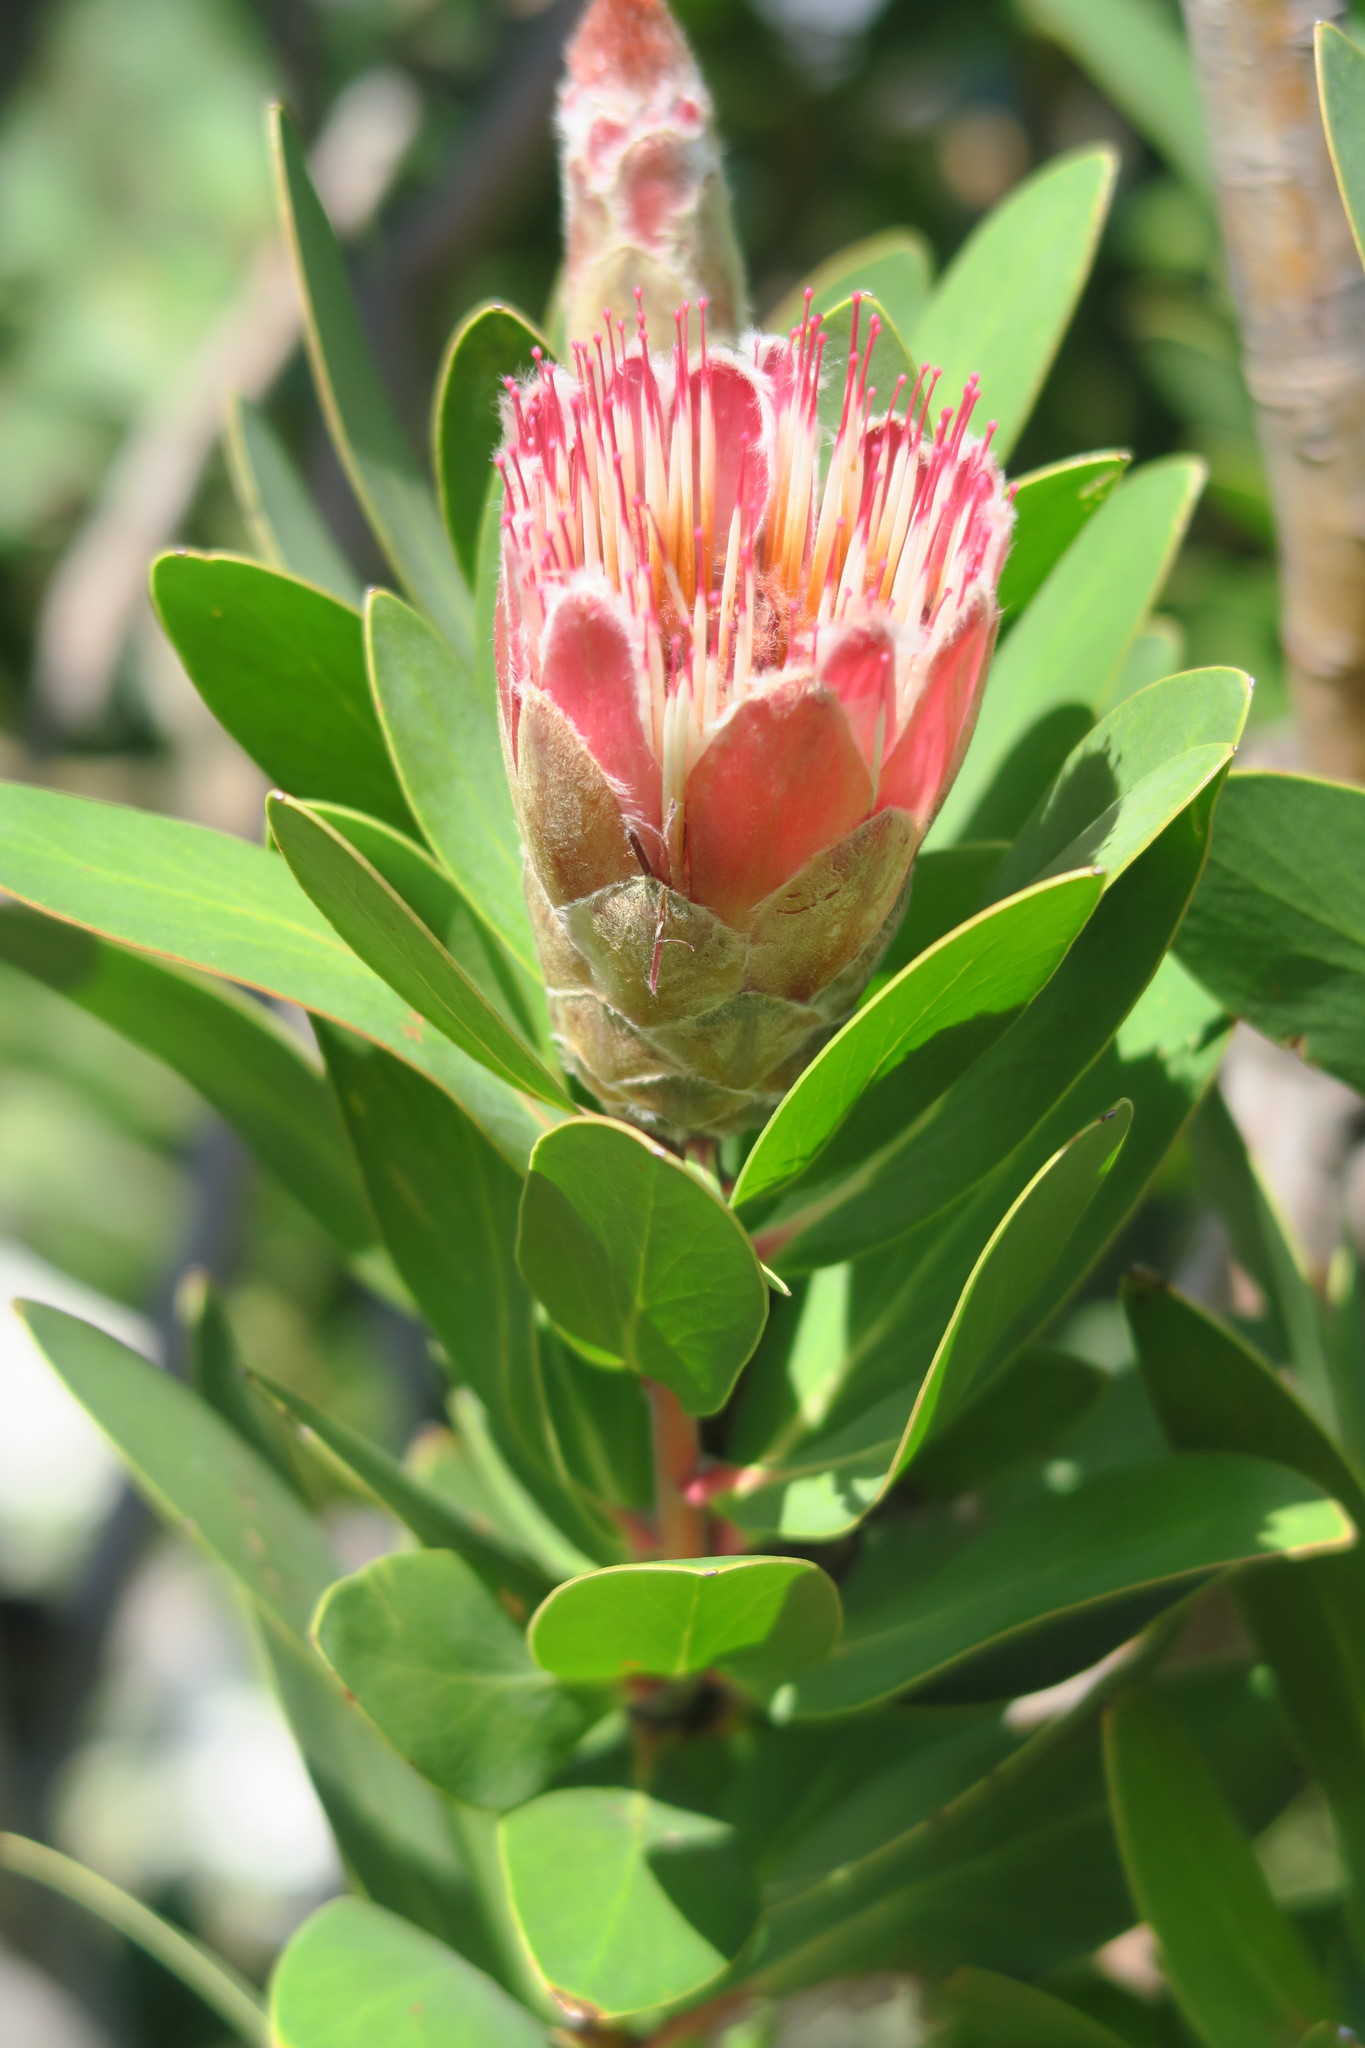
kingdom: Plantae
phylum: Tracheophyta
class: Magnoliopsida
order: Proteales
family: Proteaceae
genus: Protea
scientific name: Protea mundii
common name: Forest sugarbush
